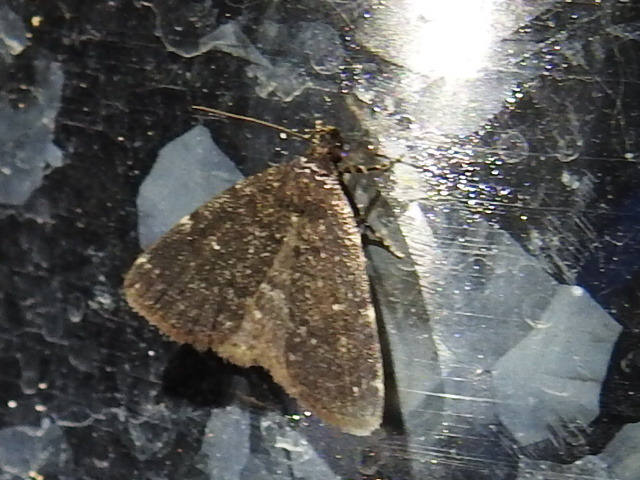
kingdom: Animalia
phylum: Arthropoda
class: Insecta
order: Lepidoptera
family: Erebidae
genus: Idia
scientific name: Idia julia
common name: Julia's idia moth
